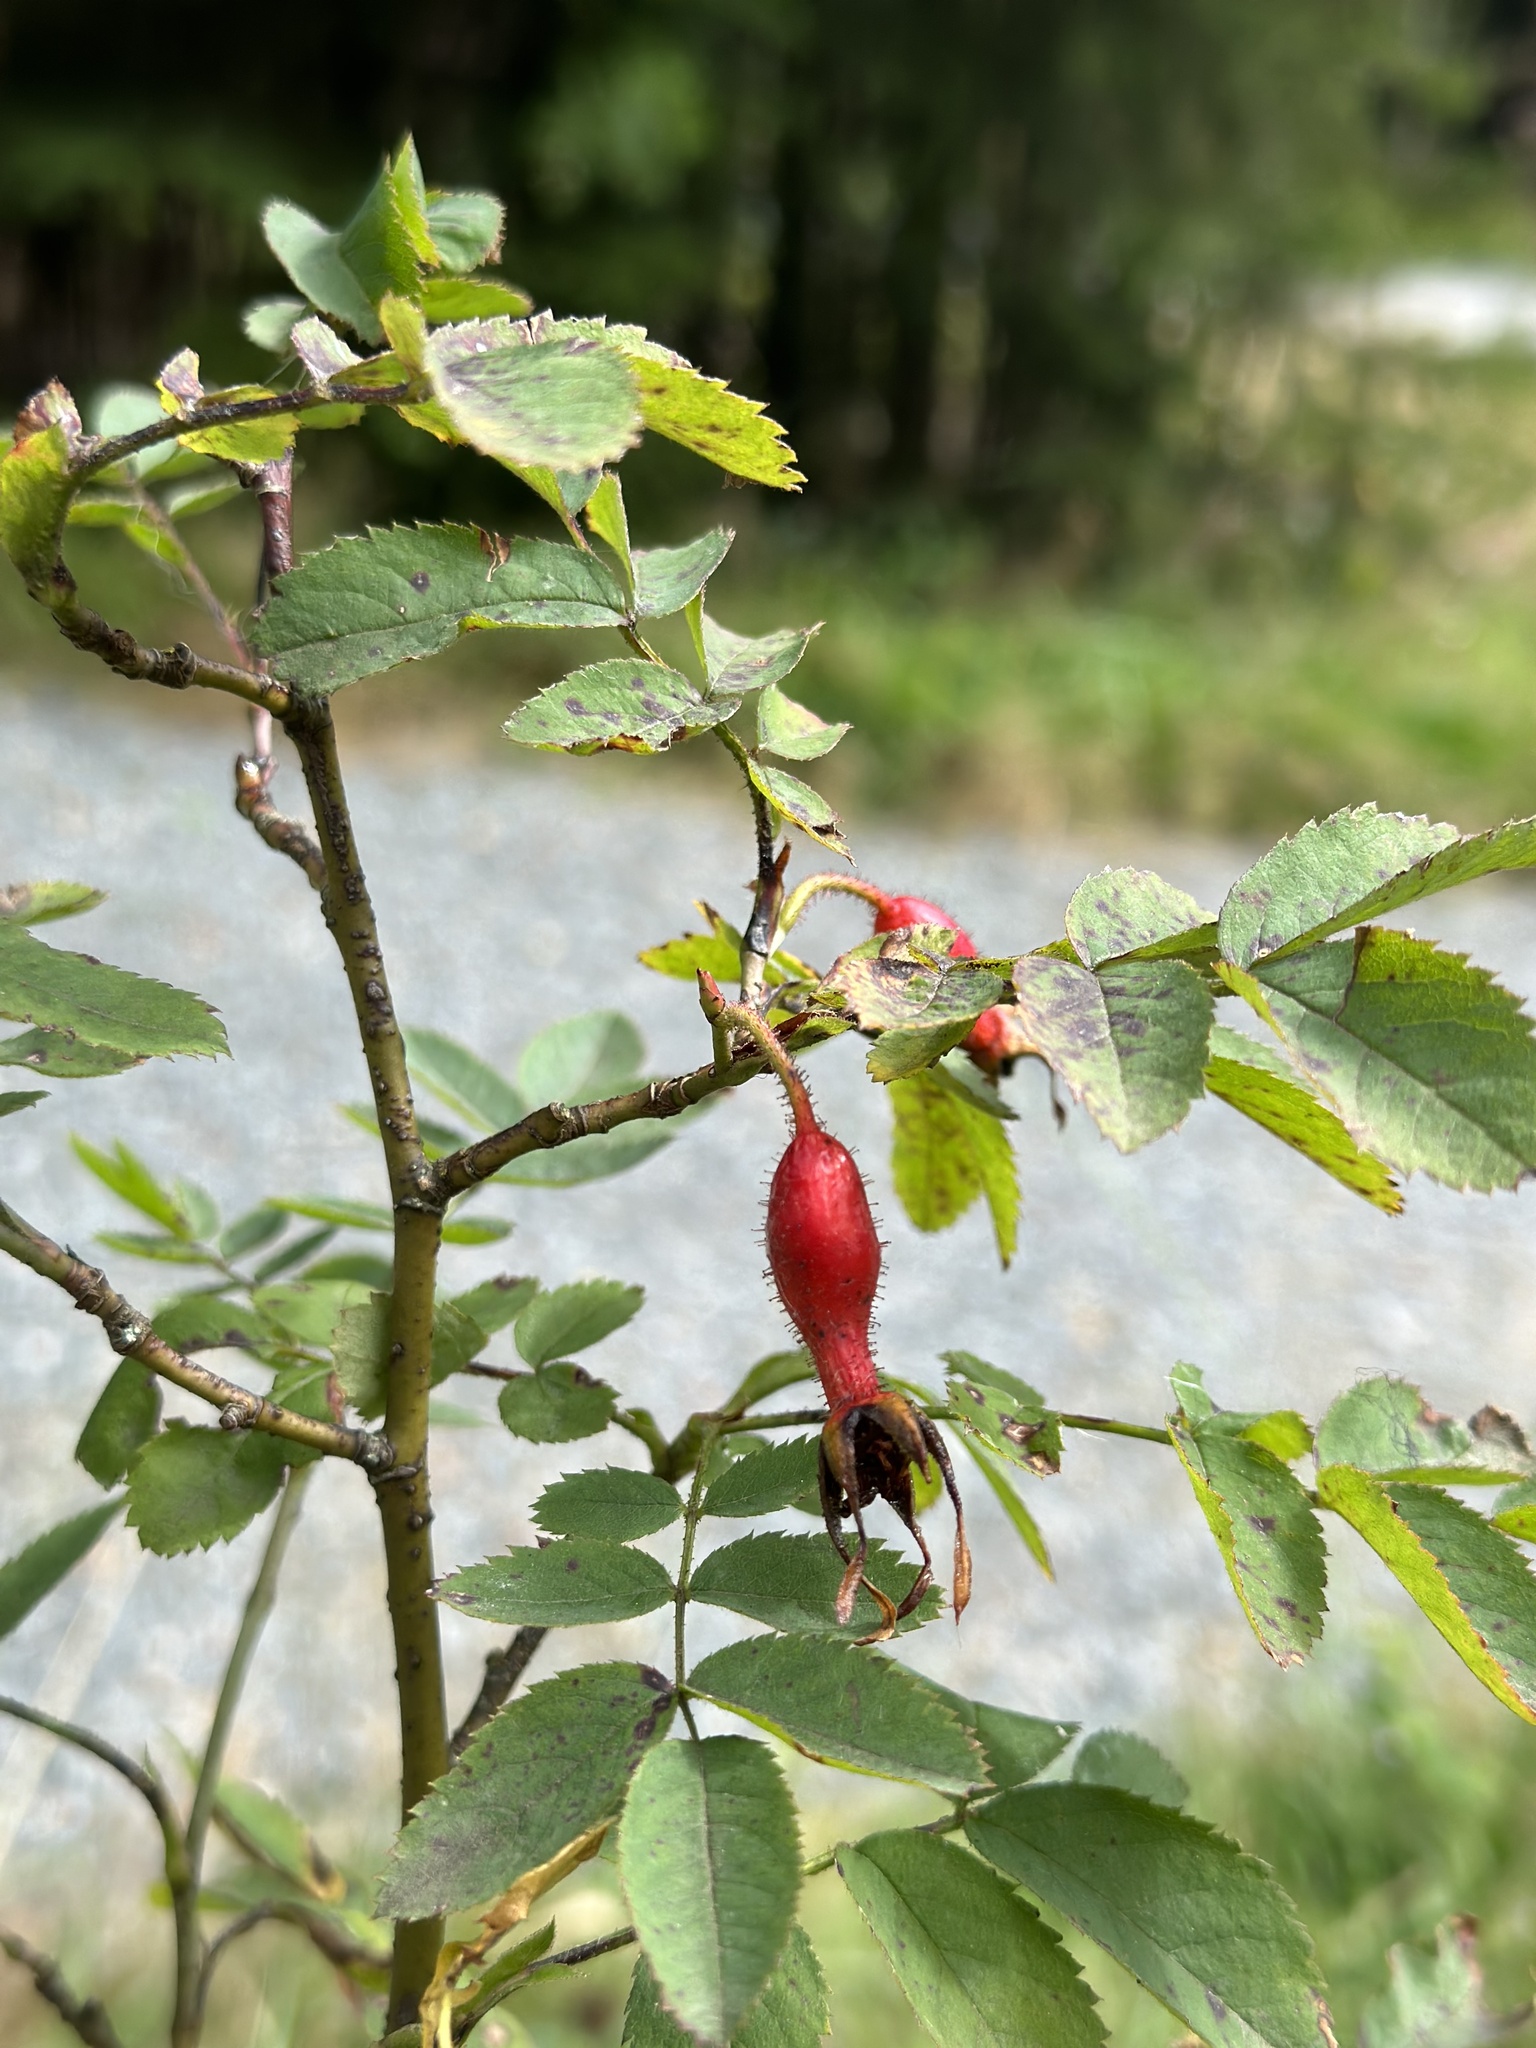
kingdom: Plantae
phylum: Tracheophyta
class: Magnoliopsida
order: Rosales
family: Rosaceae
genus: Rosa
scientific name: Rosa pendulina
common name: Alpine rose
